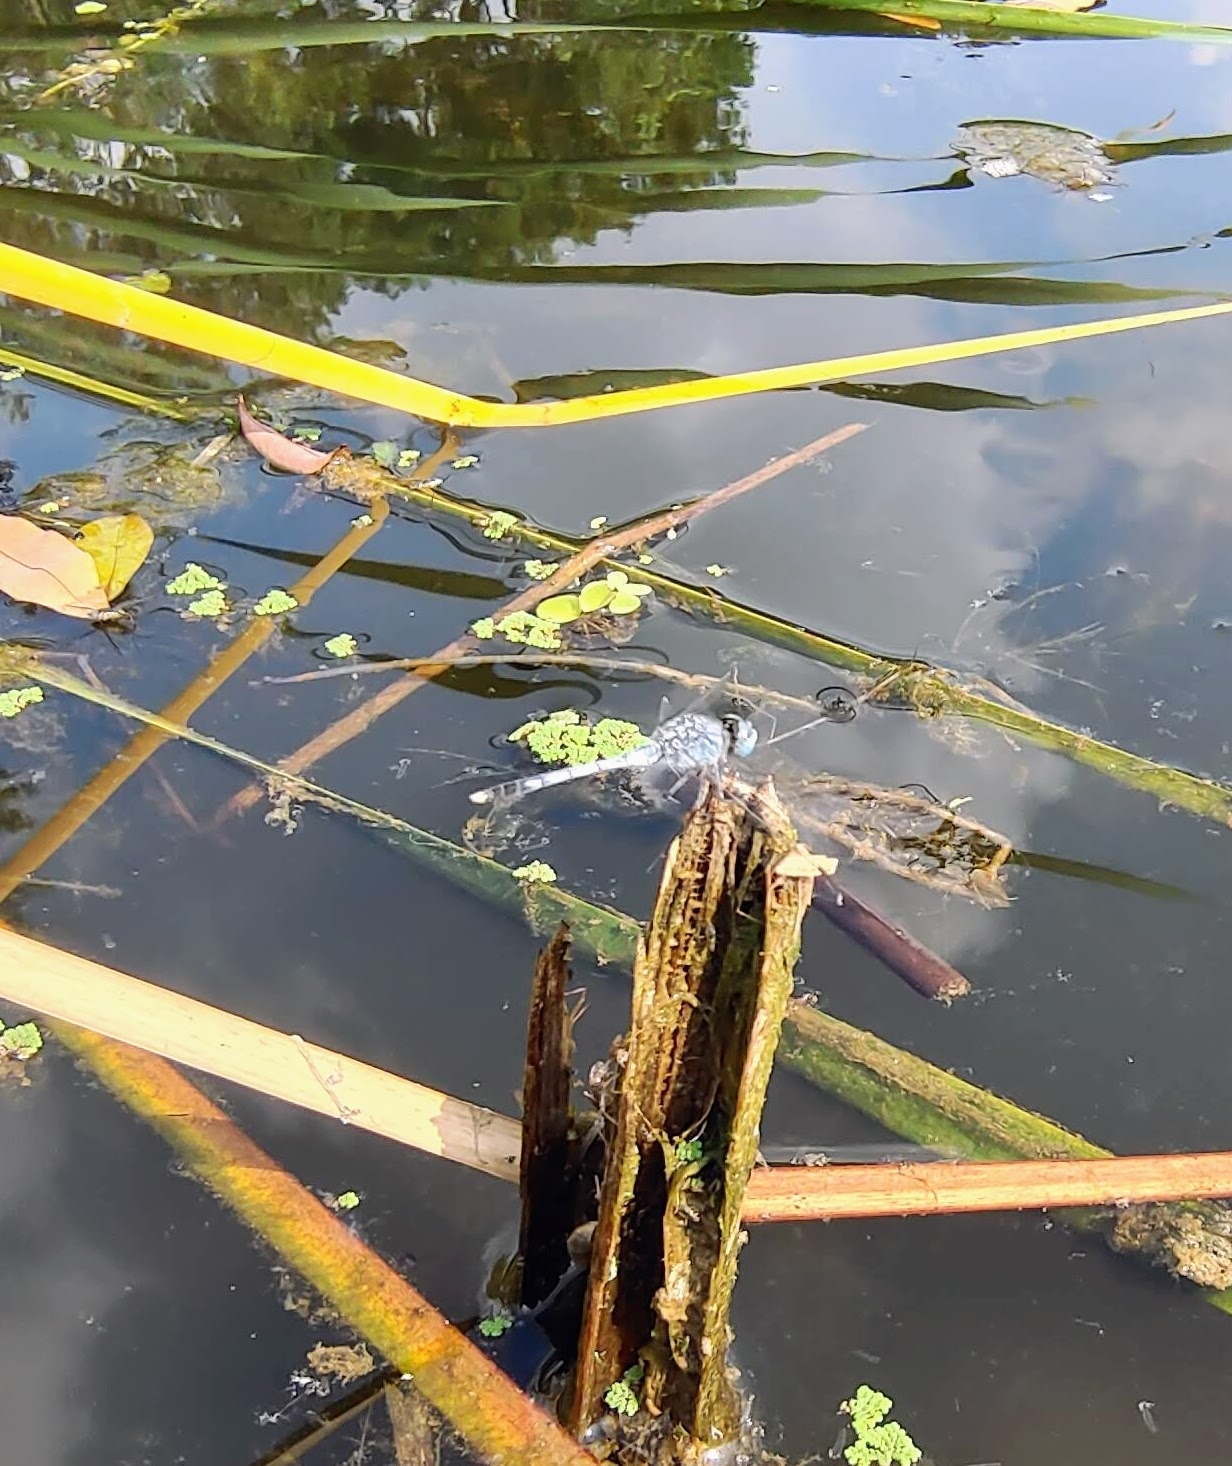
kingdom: Animalia
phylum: Arthropoda
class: Insecta
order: Odonata
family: Libellulidae
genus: Diplacodes
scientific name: Diplacodes trivialis
